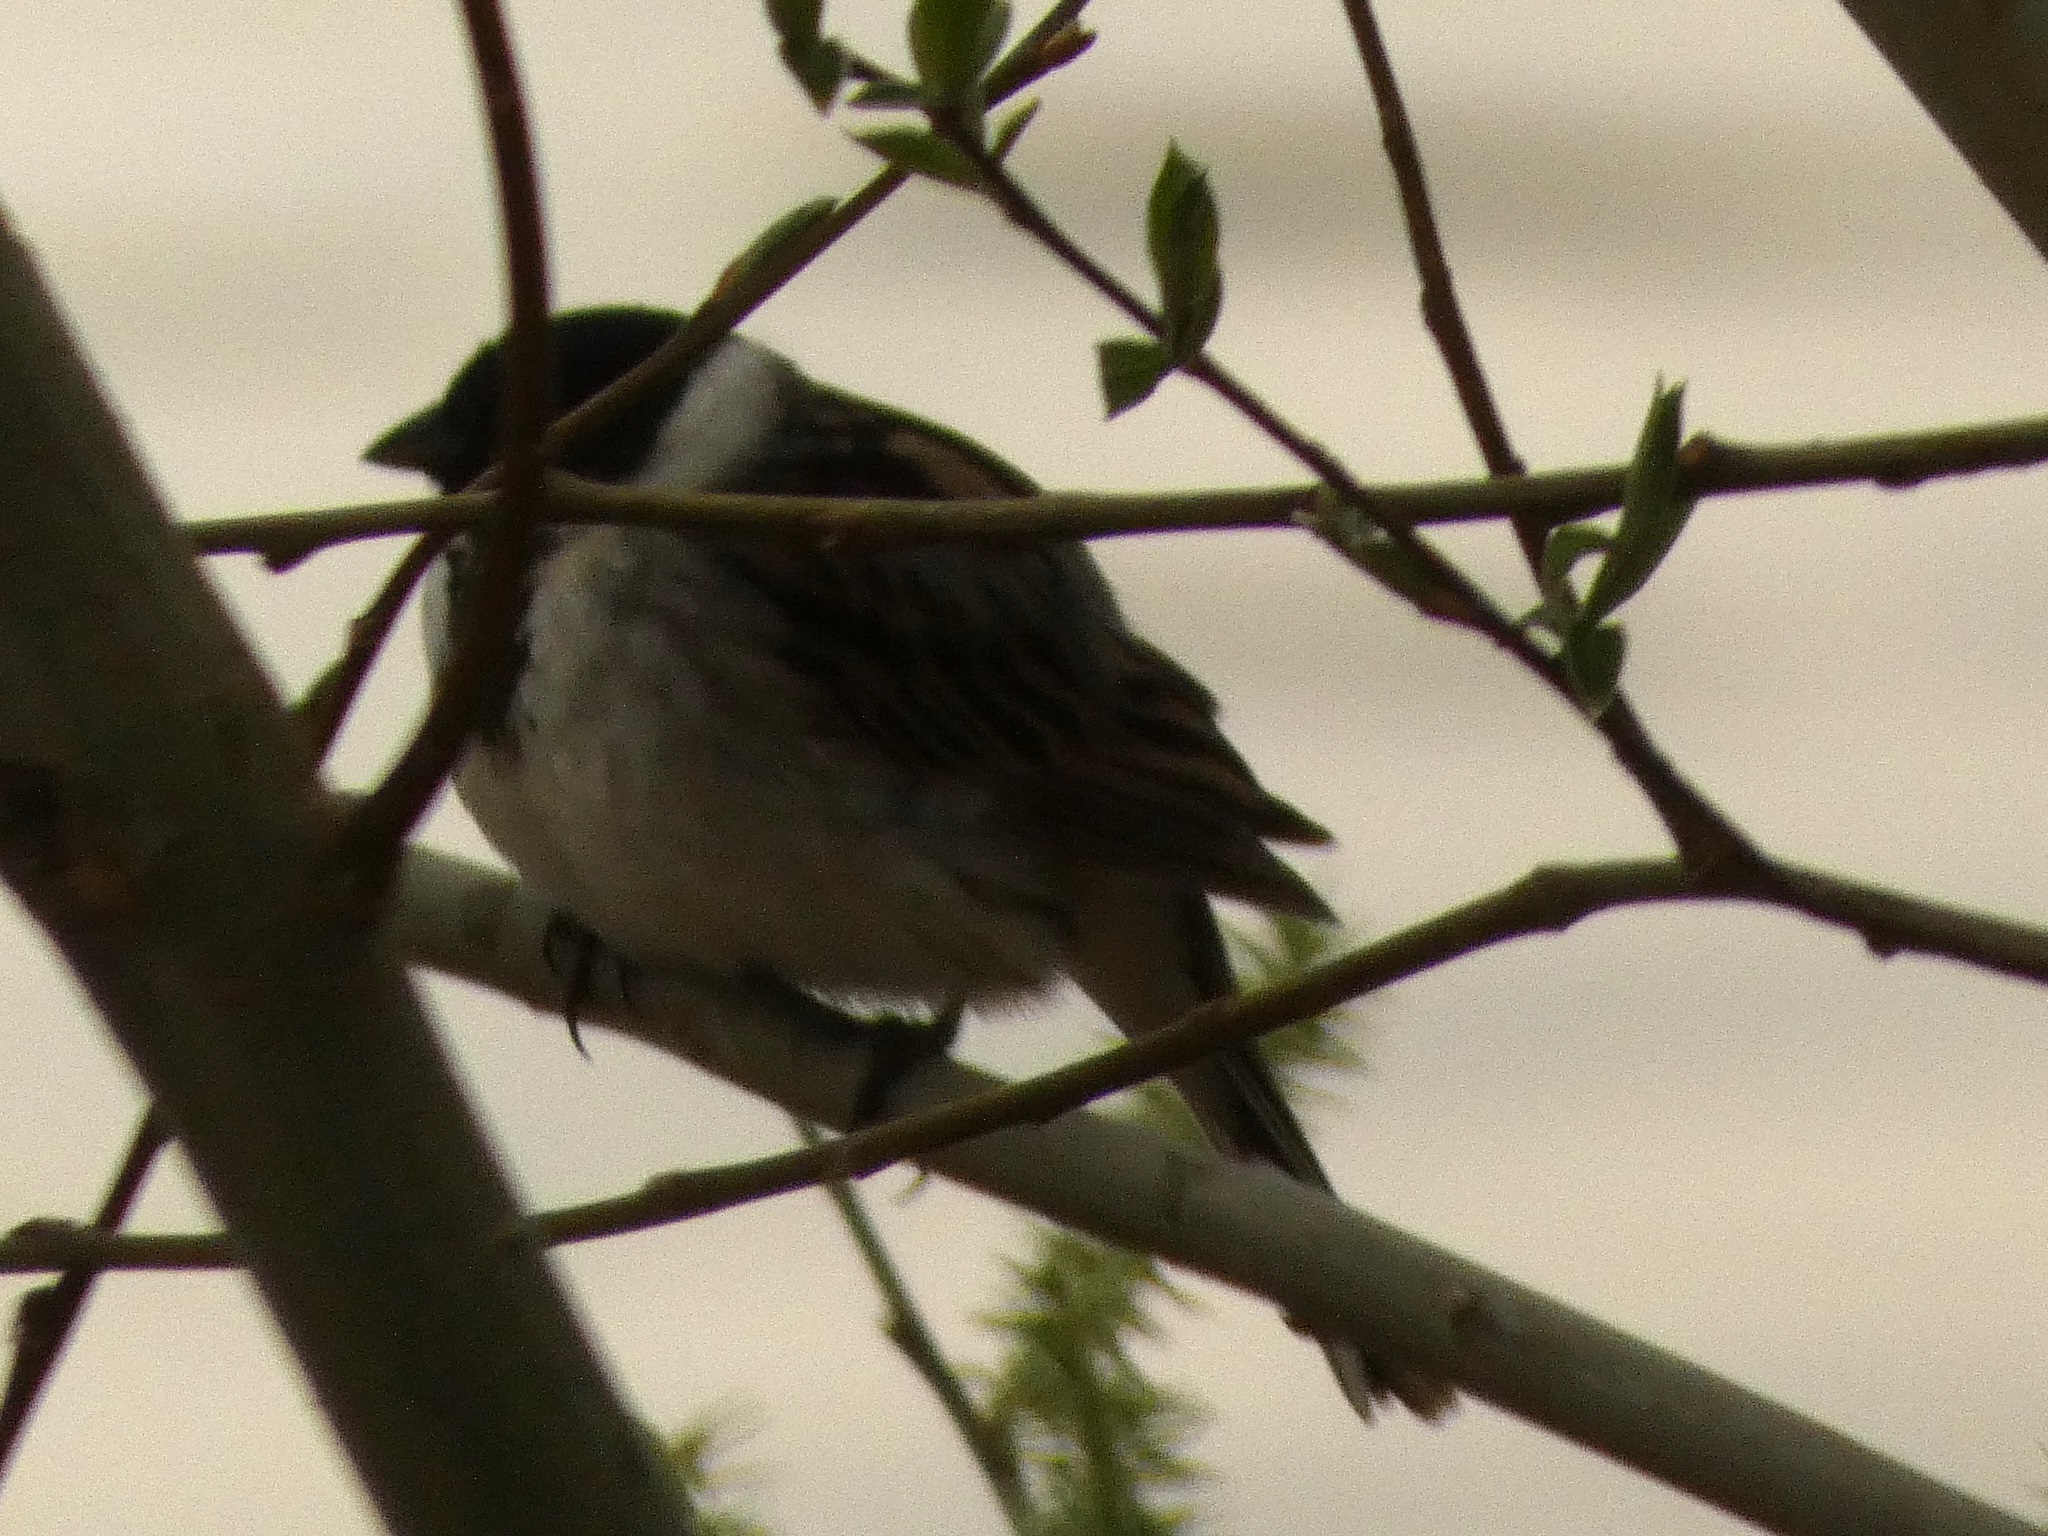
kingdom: Animalia
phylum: Chordata
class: Aves
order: Passeriformes
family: Emberizidae
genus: Emberiza
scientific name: Emberiza schoeniclus
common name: Reed bunting
